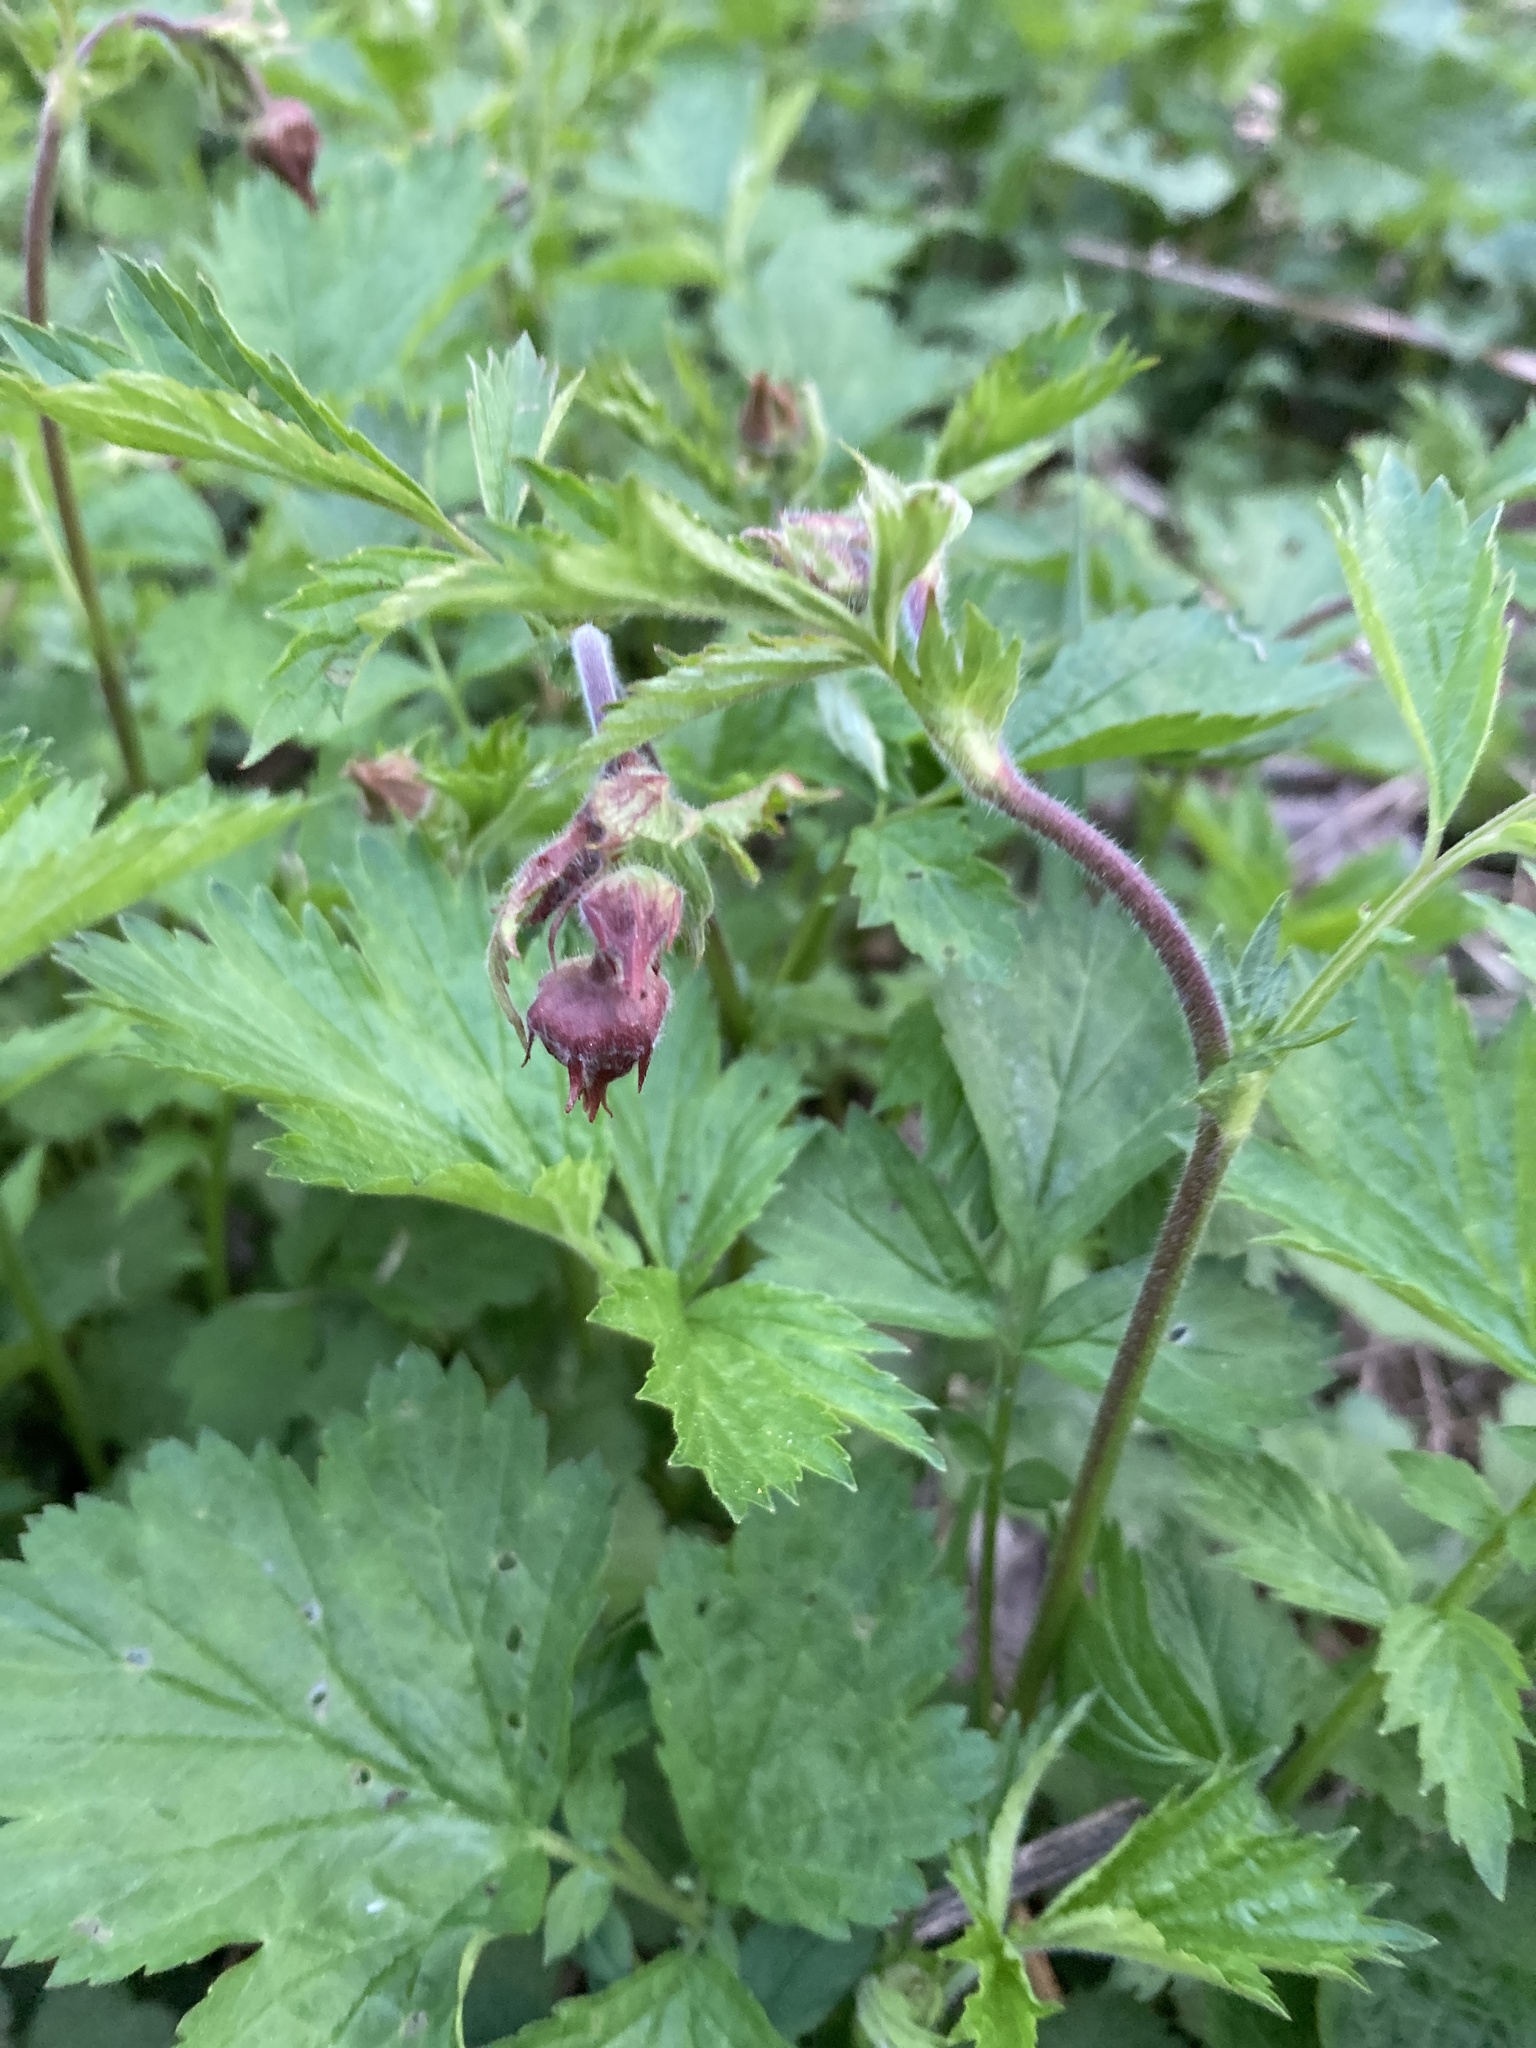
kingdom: Plantae
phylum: Tracheophyta
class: Magnoliopsida
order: Rosales
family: Rosaceae
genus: Geum
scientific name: Geum rivale
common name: Water avens
